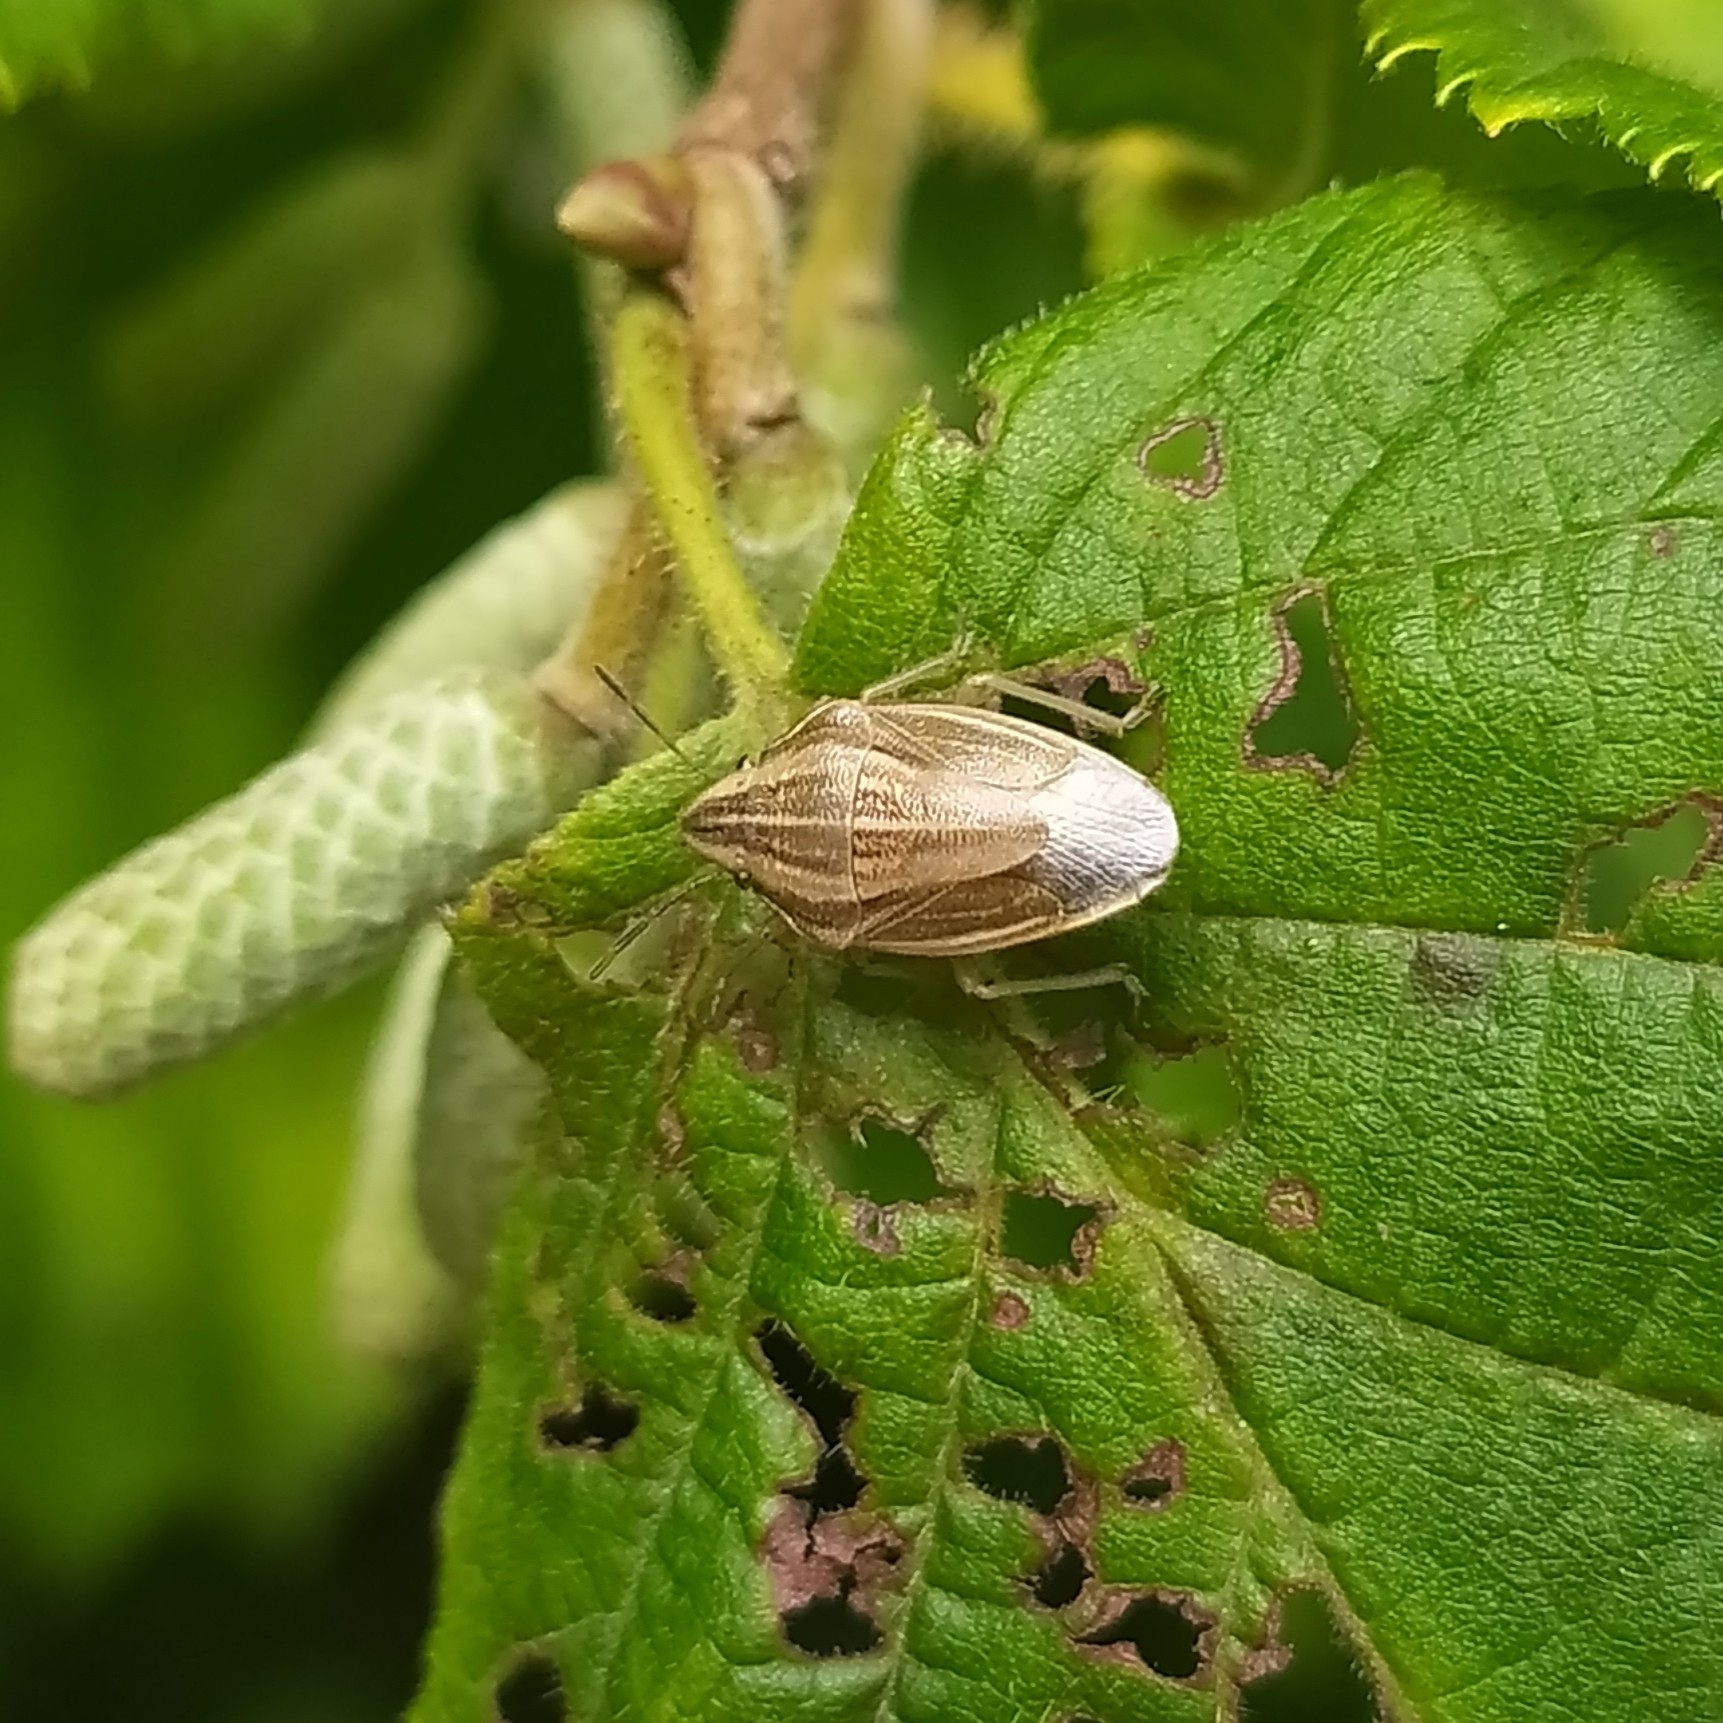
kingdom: Animalia
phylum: Arthropoda
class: Insecta
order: Hemiptera
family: Pentatomidae
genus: Aelia
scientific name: Aelia acuminata
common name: Bishop's mitre
